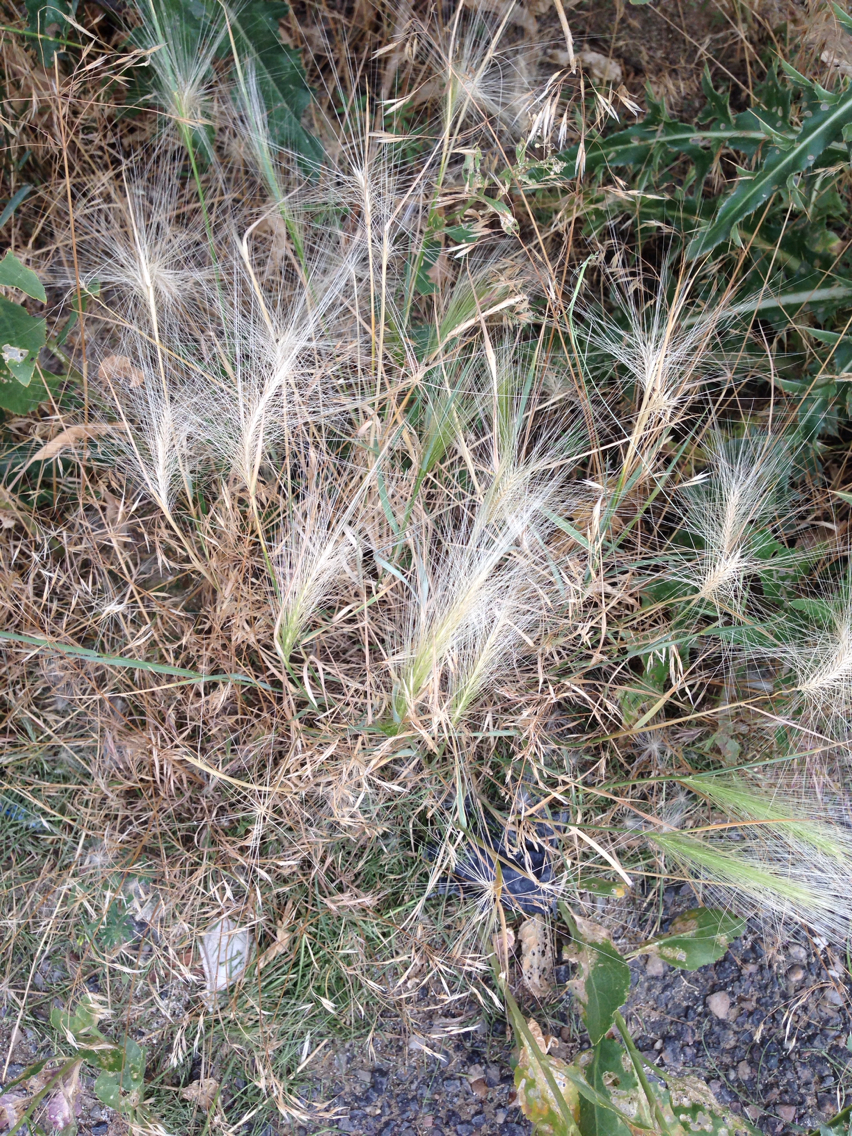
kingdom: Plantae
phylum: Tracheophyta
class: Liliopsida
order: Poales
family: Poaceae
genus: Hordeum
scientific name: Hordeum jubatum
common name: Foxtail barley
